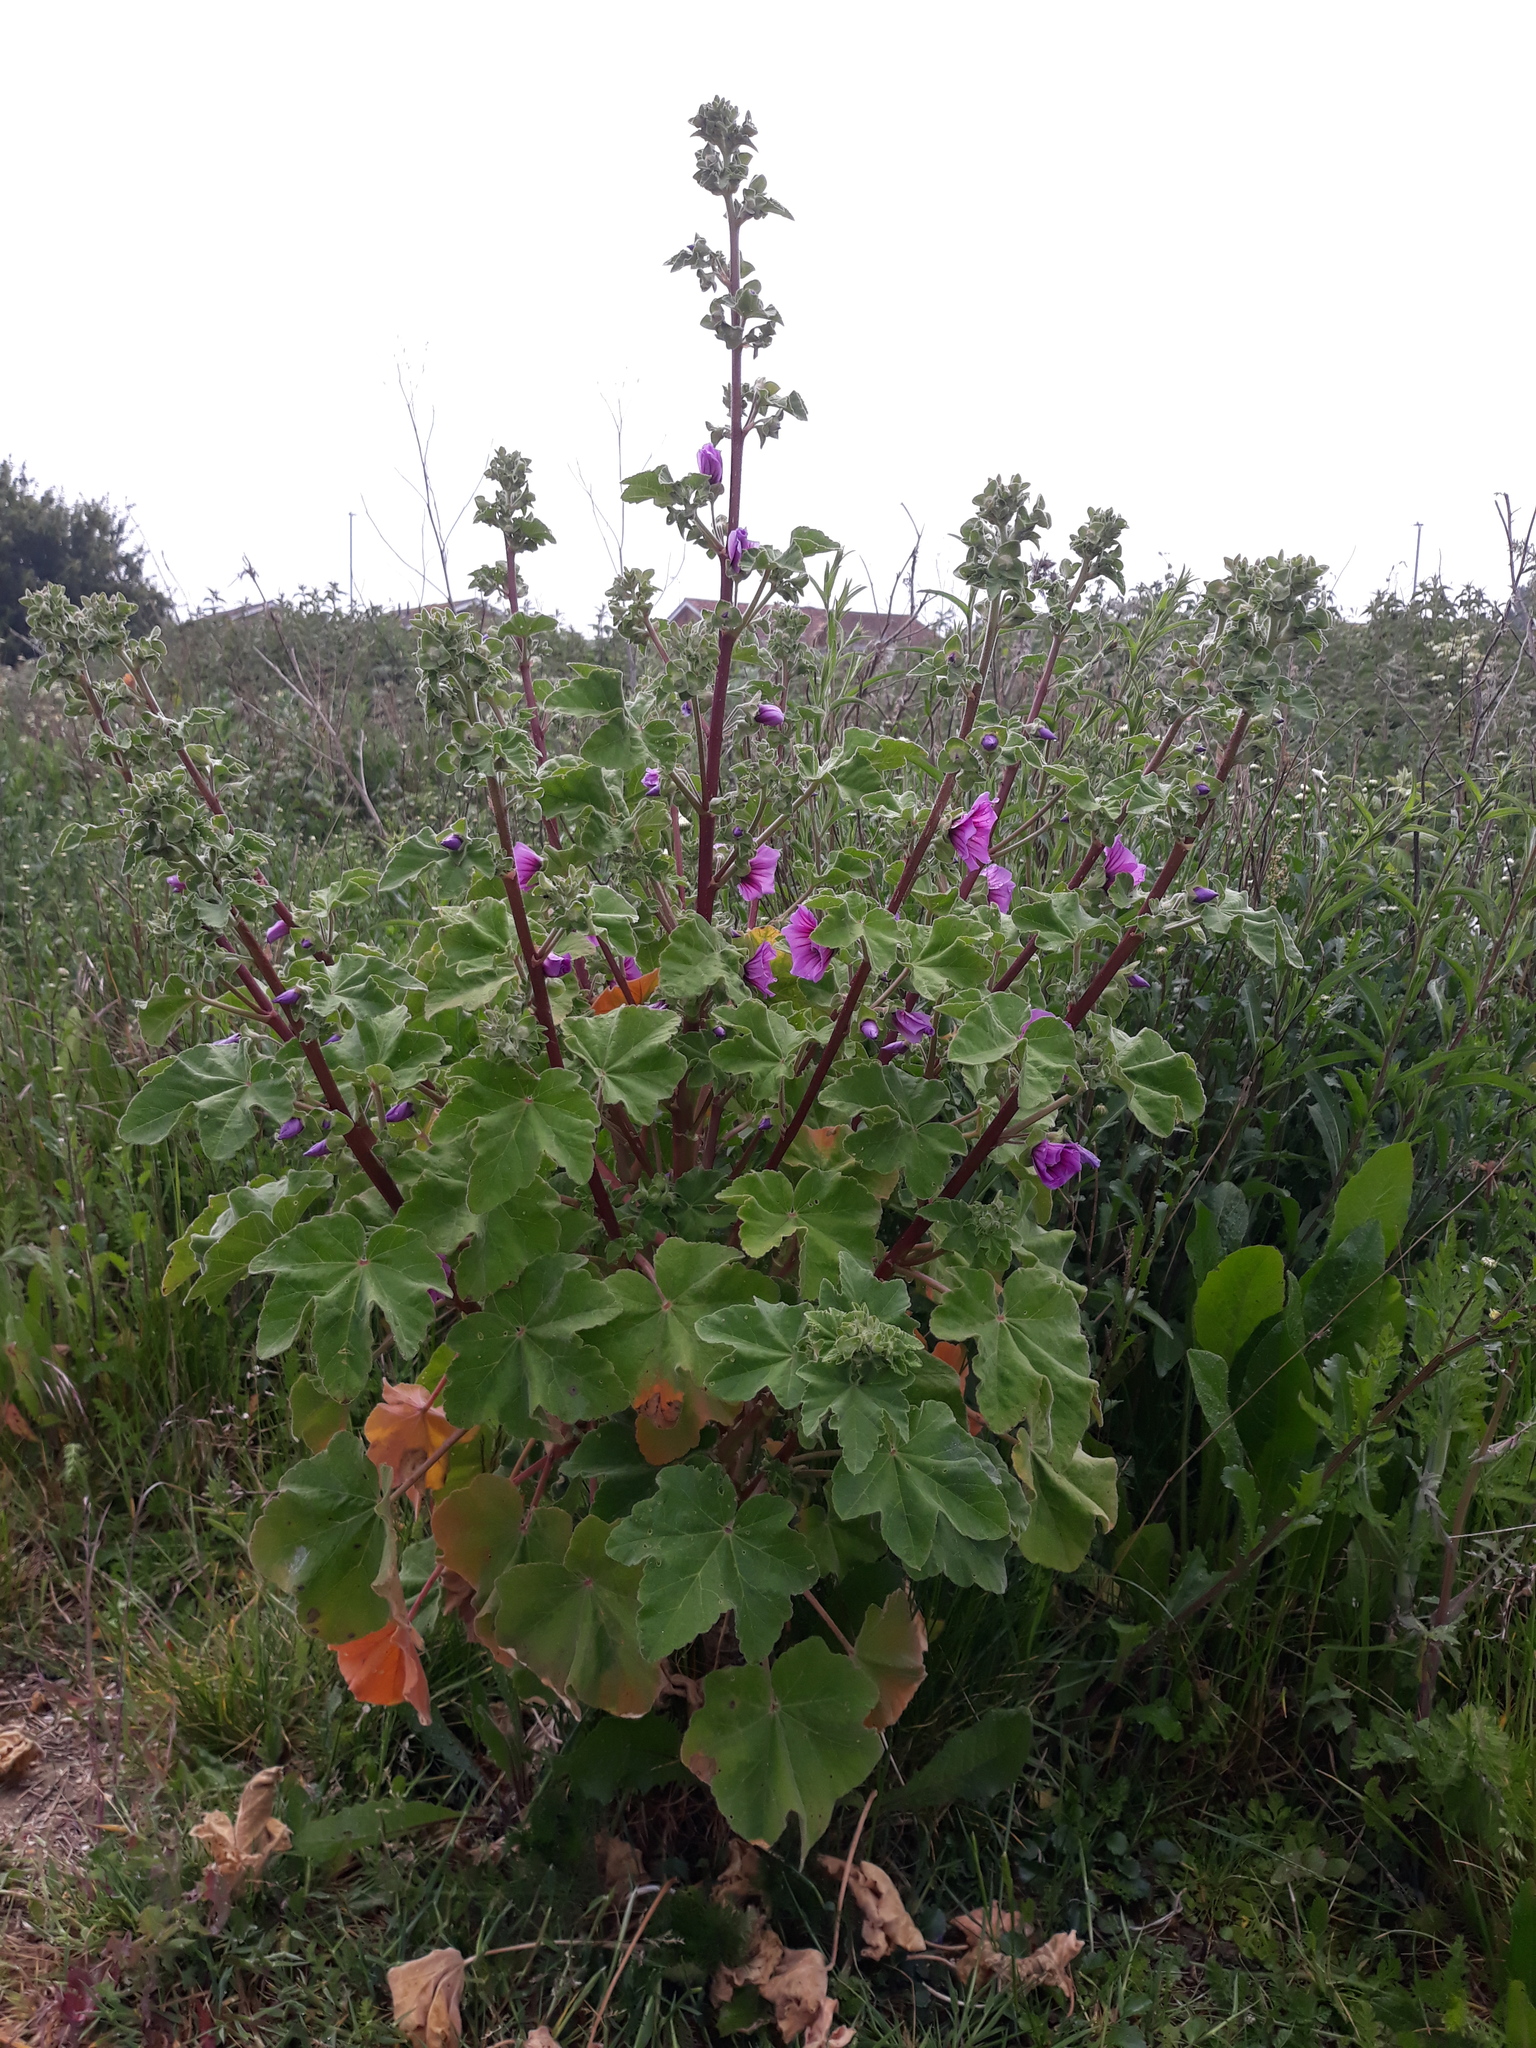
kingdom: Plantae
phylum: Tracheophyta
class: Magnoliopsida
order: Malvales
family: Malvaceae
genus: Malva
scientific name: Malva arborea
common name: Tree mallow
